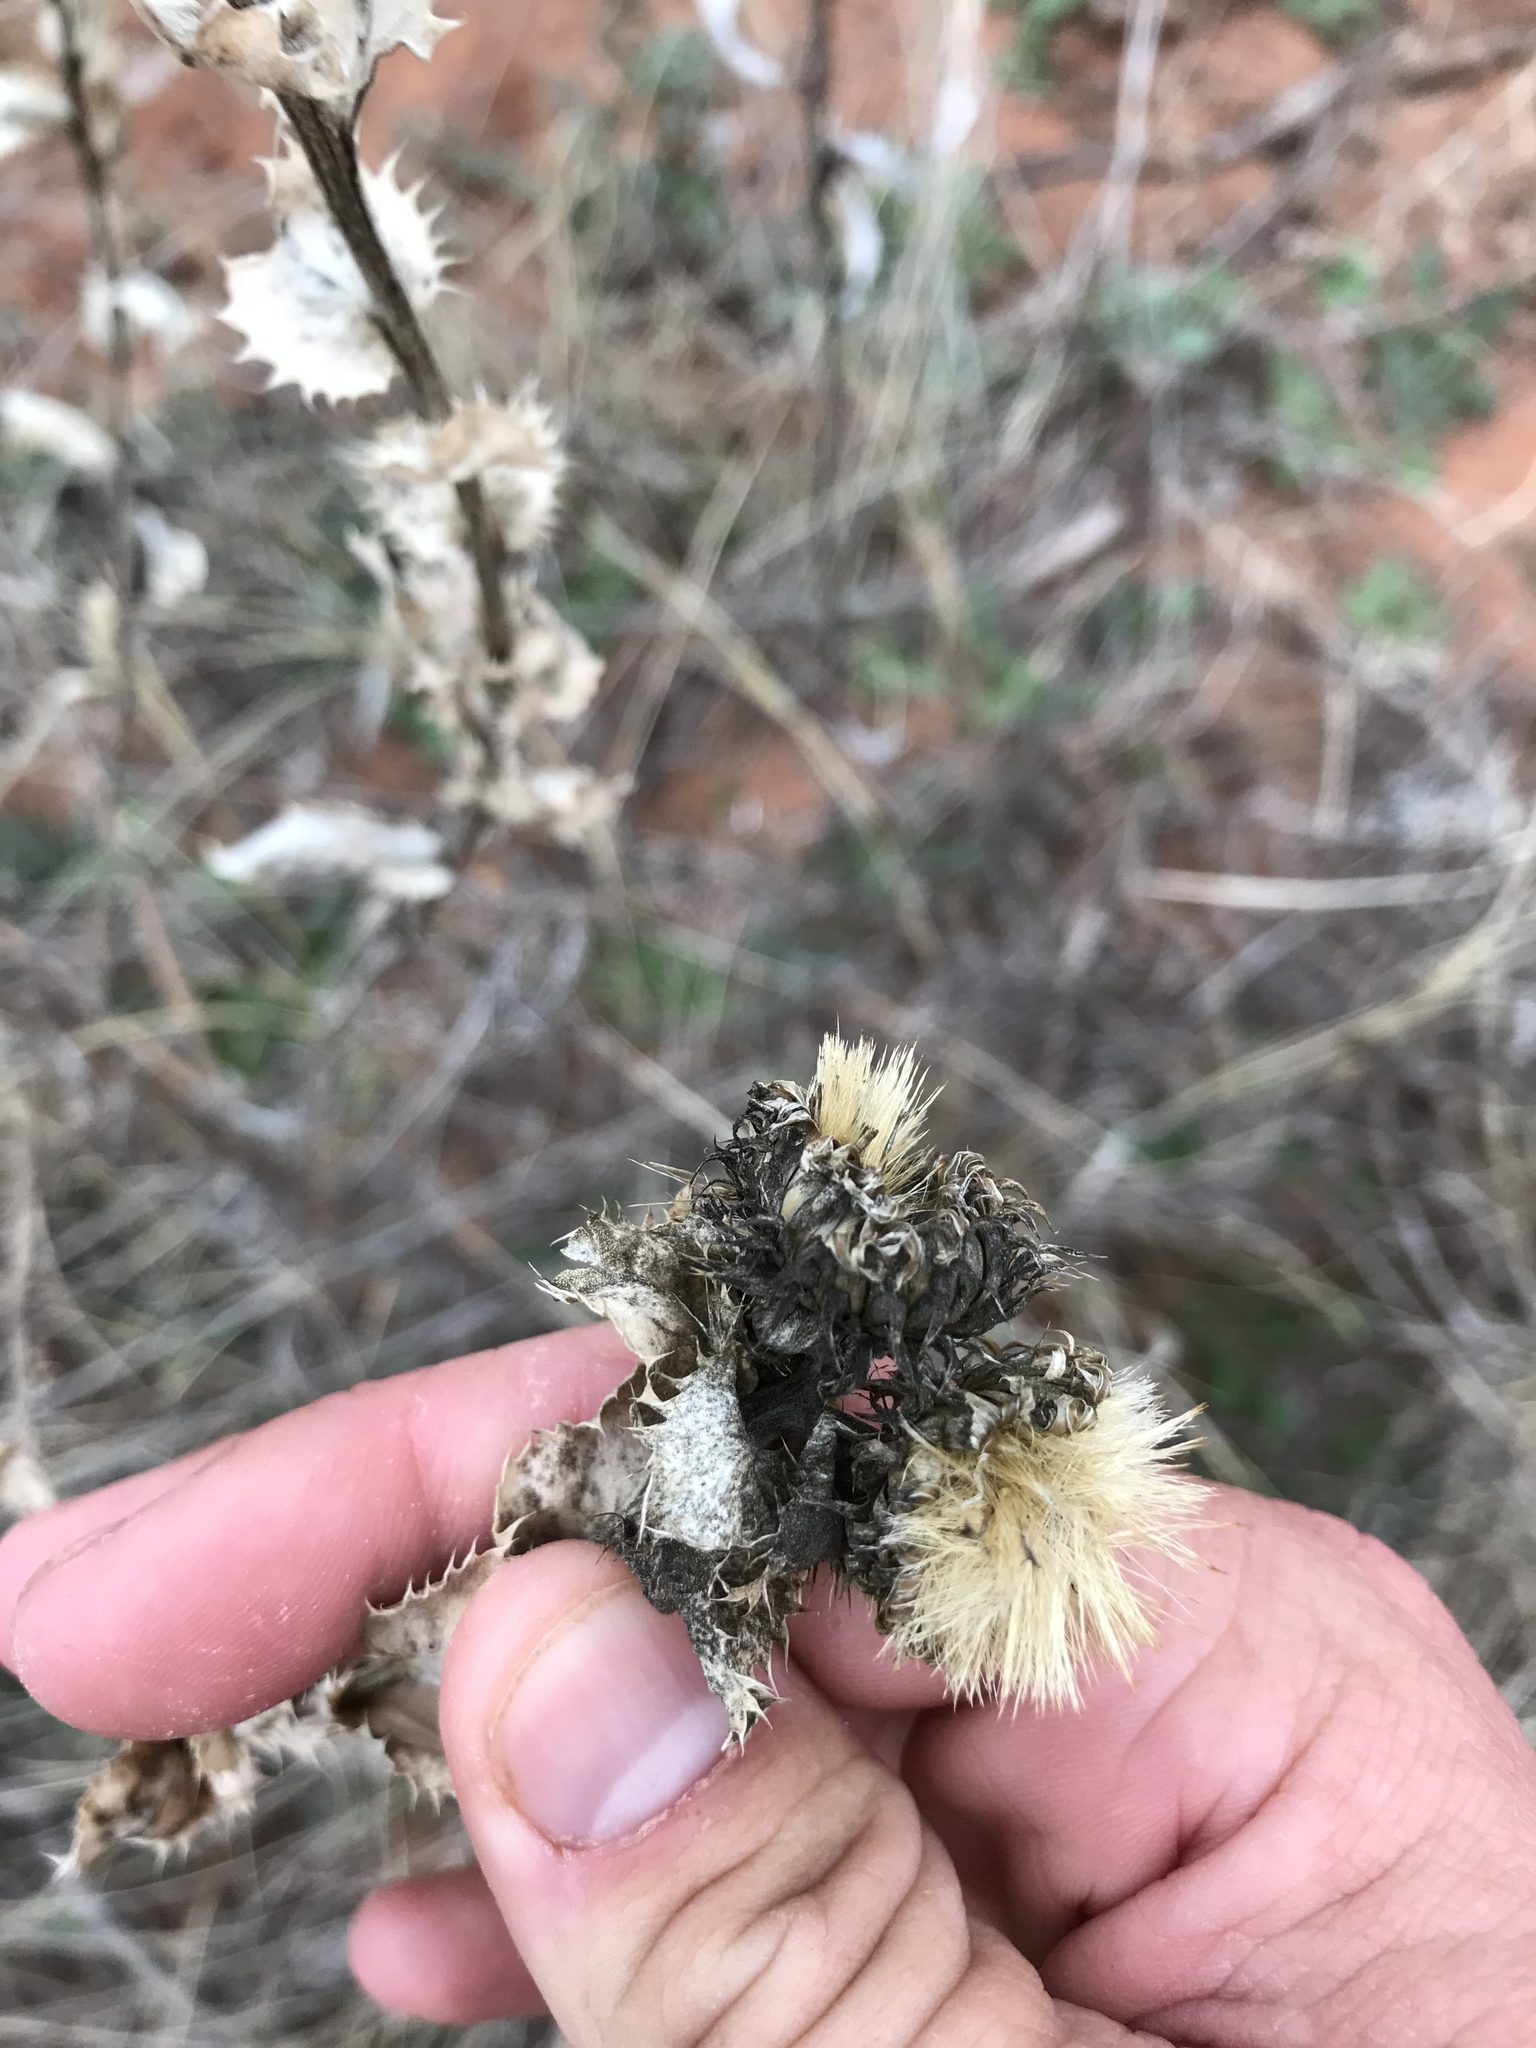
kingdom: Plantae
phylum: Tracheophyta
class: Magnoliopsida
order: Asterales
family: Asteraceae
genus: Grindelia
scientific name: Grindelia ciliata
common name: Goldenweed
